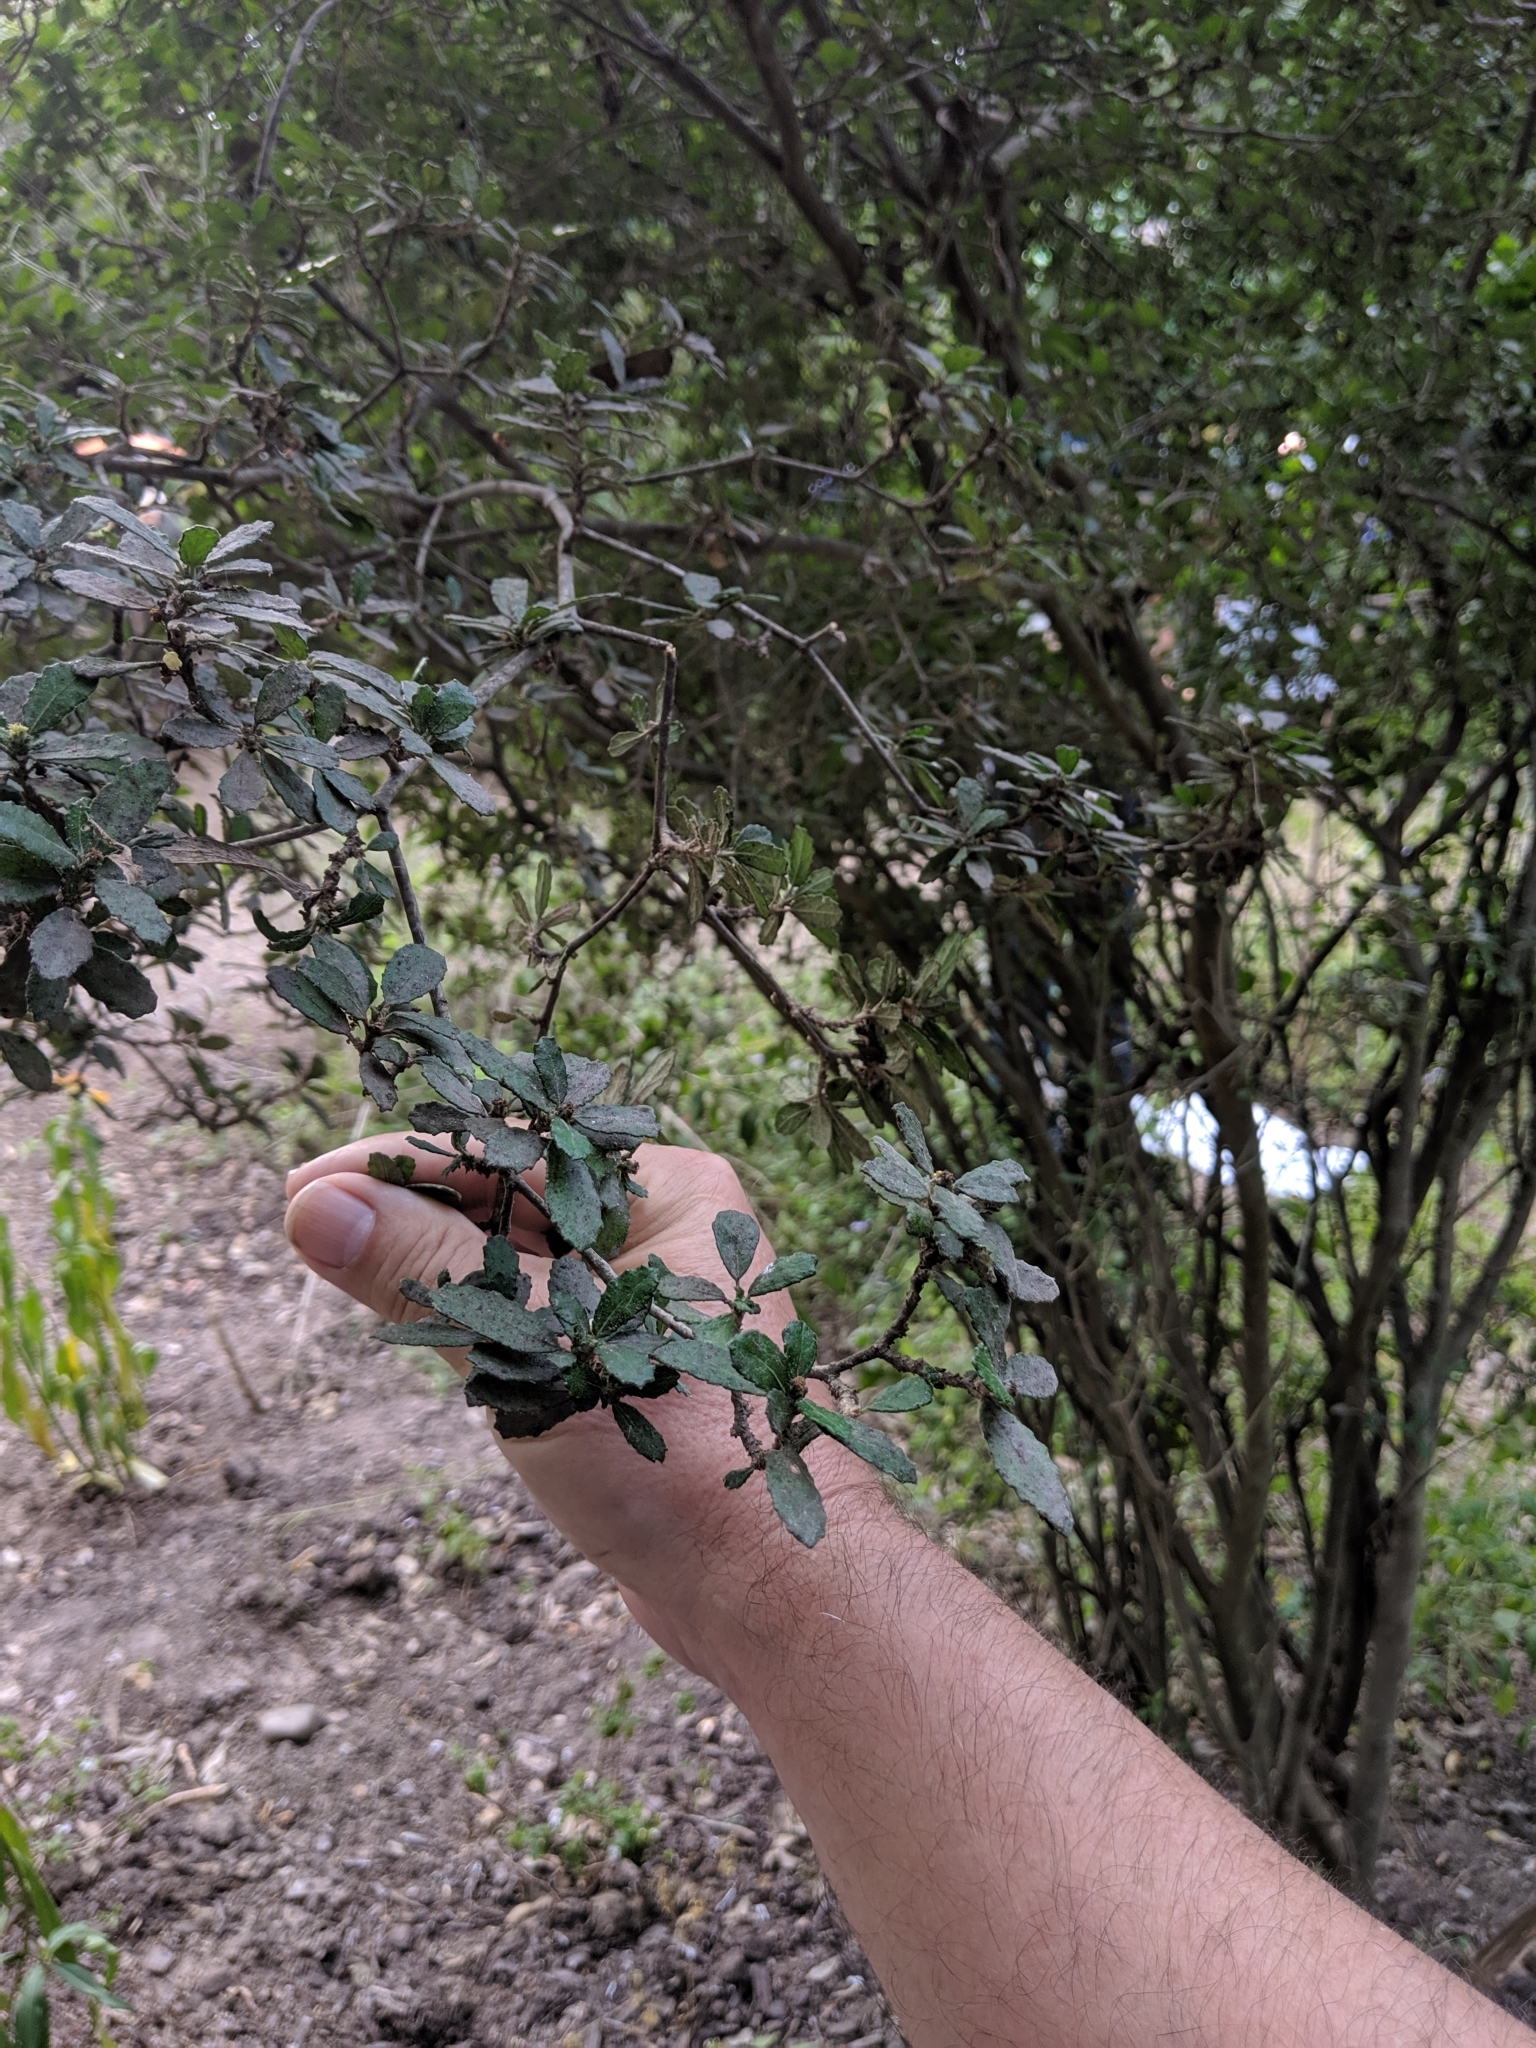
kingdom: Plantae
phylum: Tracheophyta
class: Magnoliopsida
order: Malpighiales
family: Euphorbiaceae
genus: Bernardia
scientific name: Bernardia myricifolia
